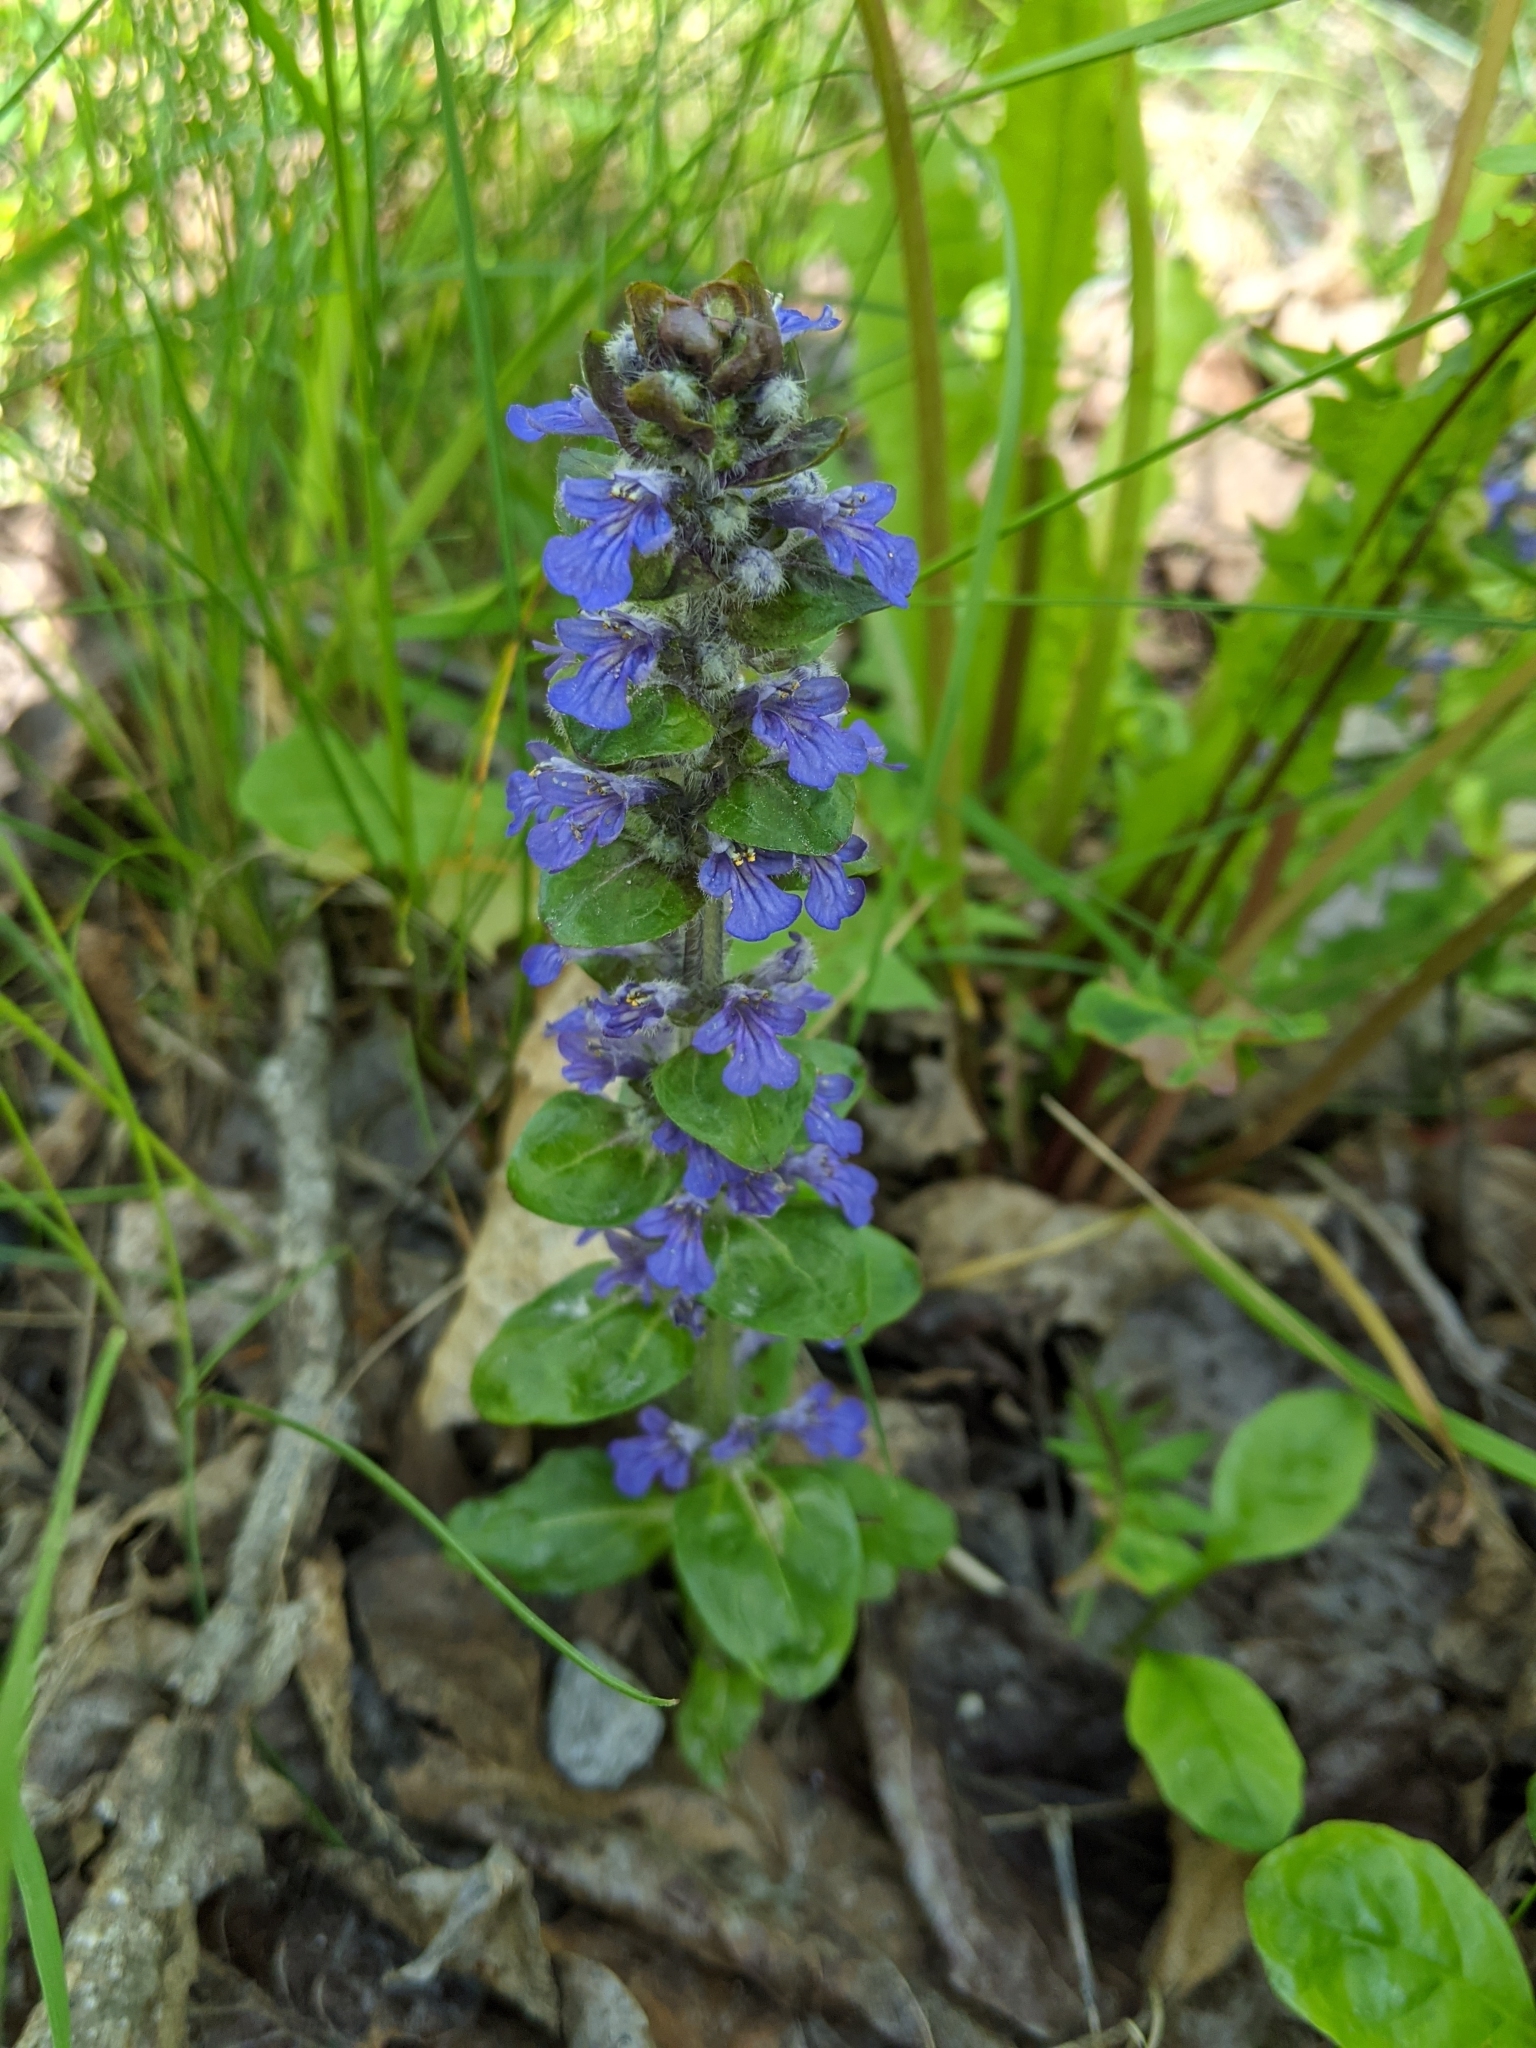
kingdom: Plantae
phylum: Tracheophyta
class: Magnoliopsida
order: Lamiales
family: Lamiaceae
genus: Ajuga
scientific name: Ajuga reptans
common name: Bugle
